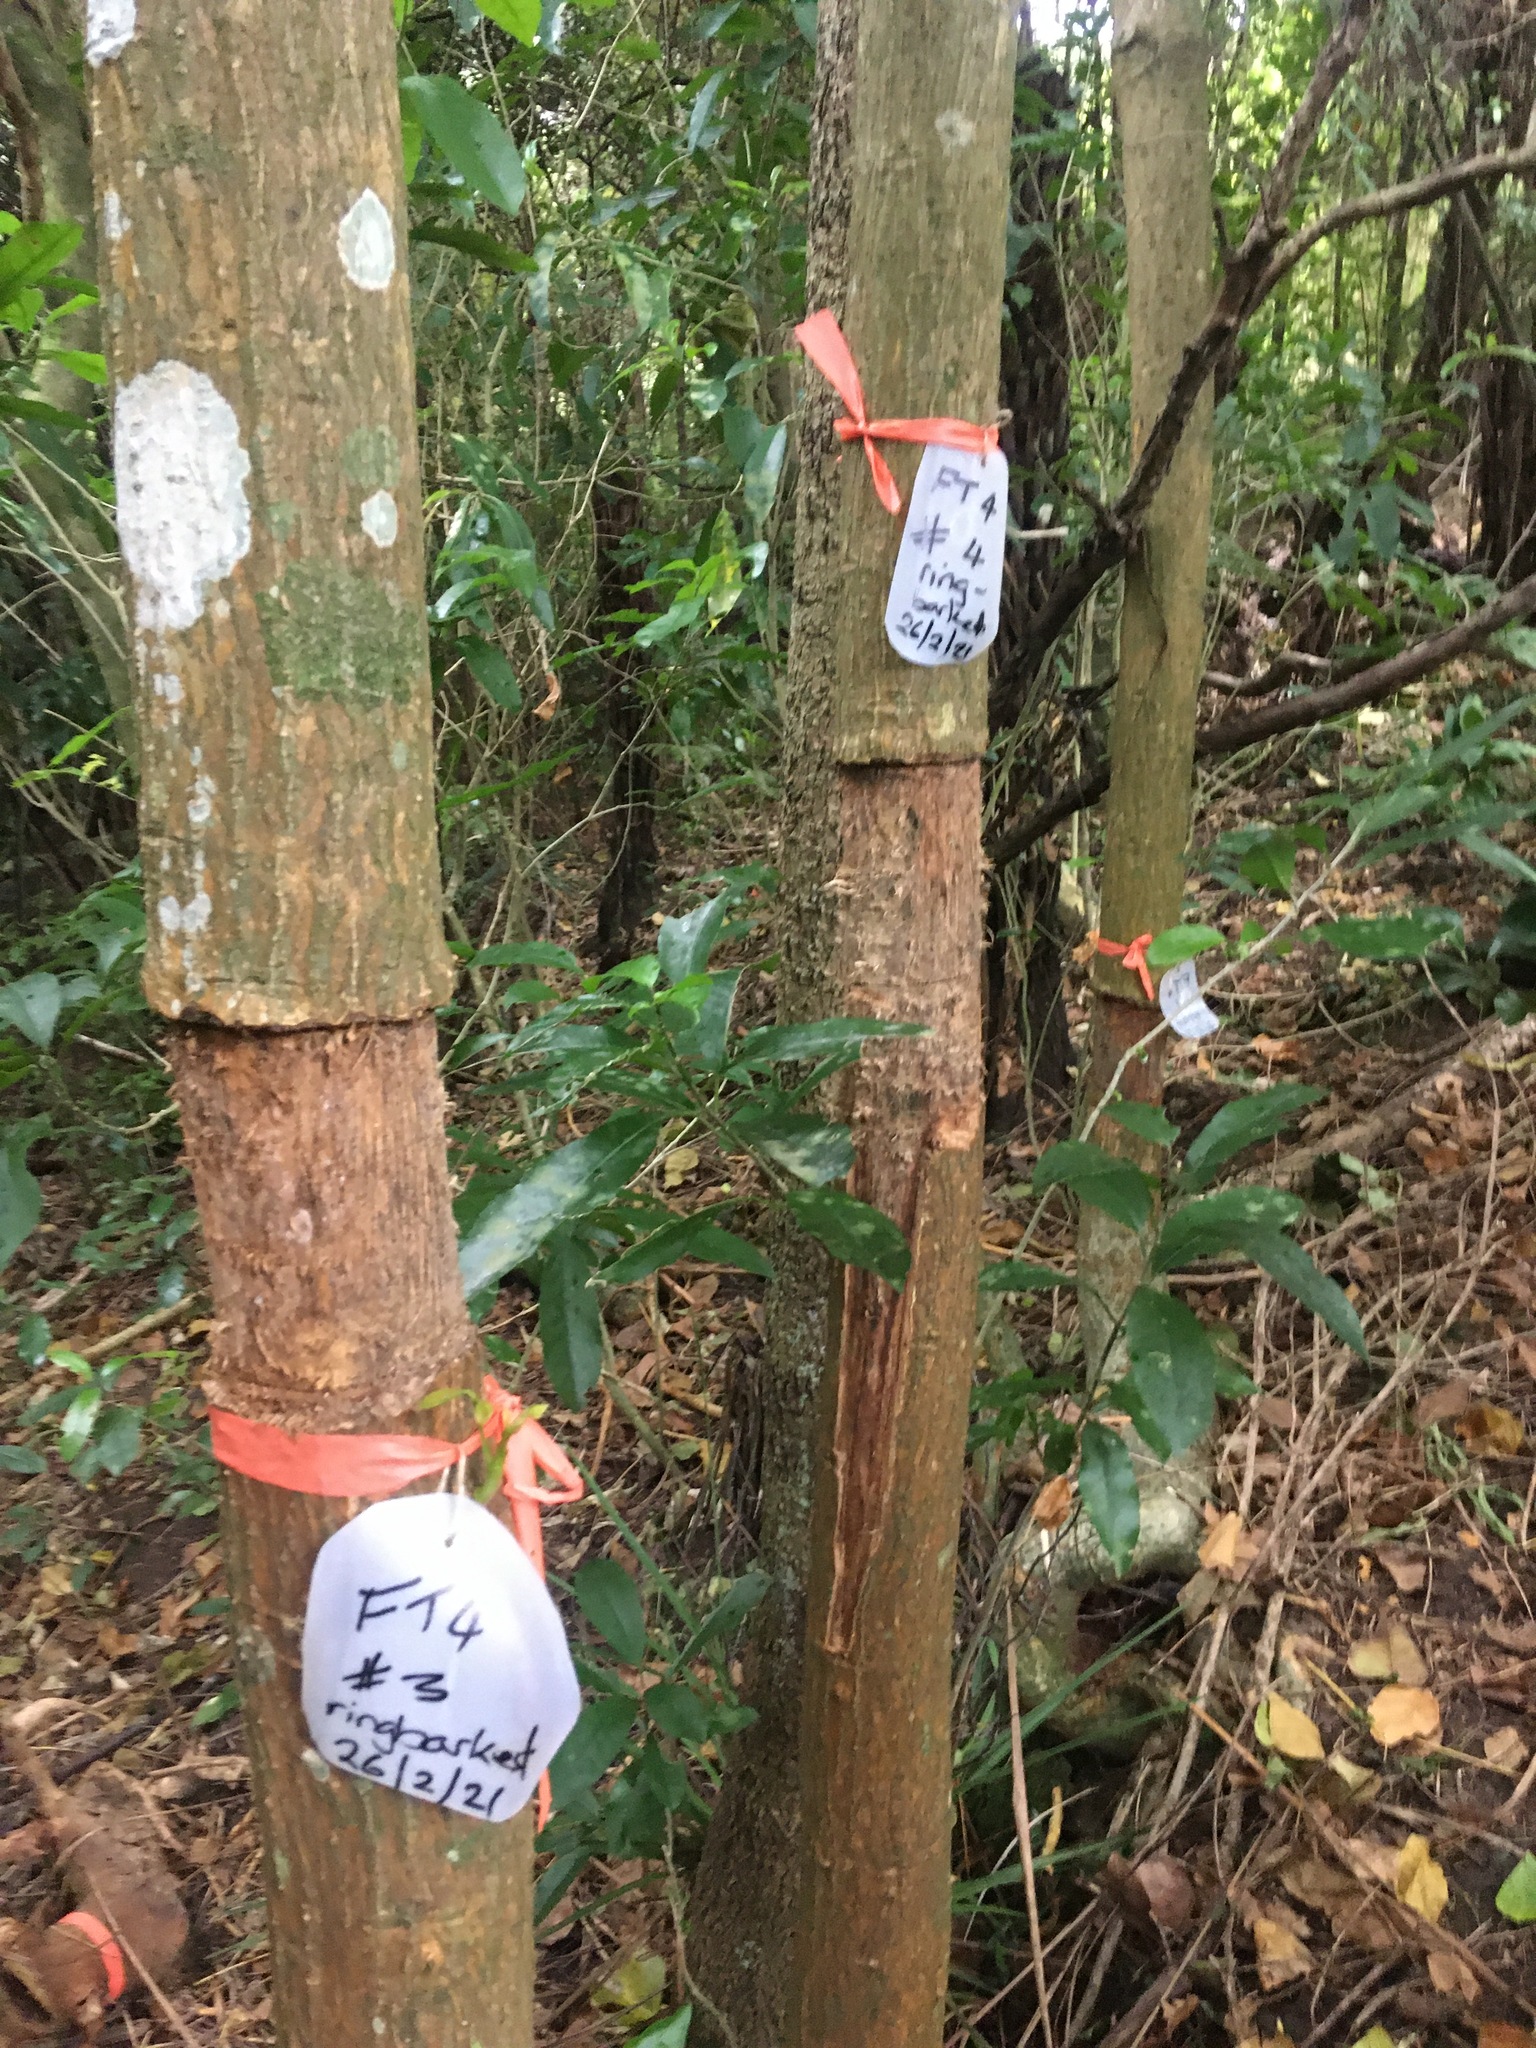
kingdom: Plantae
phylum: Tracheophyta
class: Magnoliopsida
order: Fabales
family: Fabaceae
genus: Erythrina
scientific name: Erythrina sykesii
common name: Coraltree
